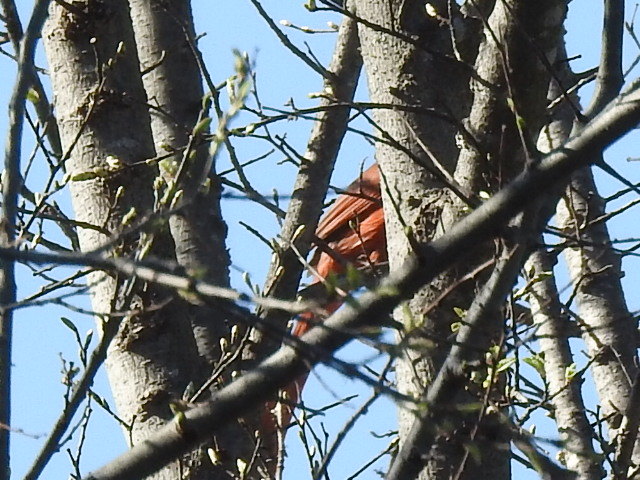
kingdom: Animalia
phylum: Chordata
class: Aves
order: Passeriformes
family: Cardinalidae
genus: Cardinalis
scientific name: Cardinalis cardinalis
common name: Northern cardinal
